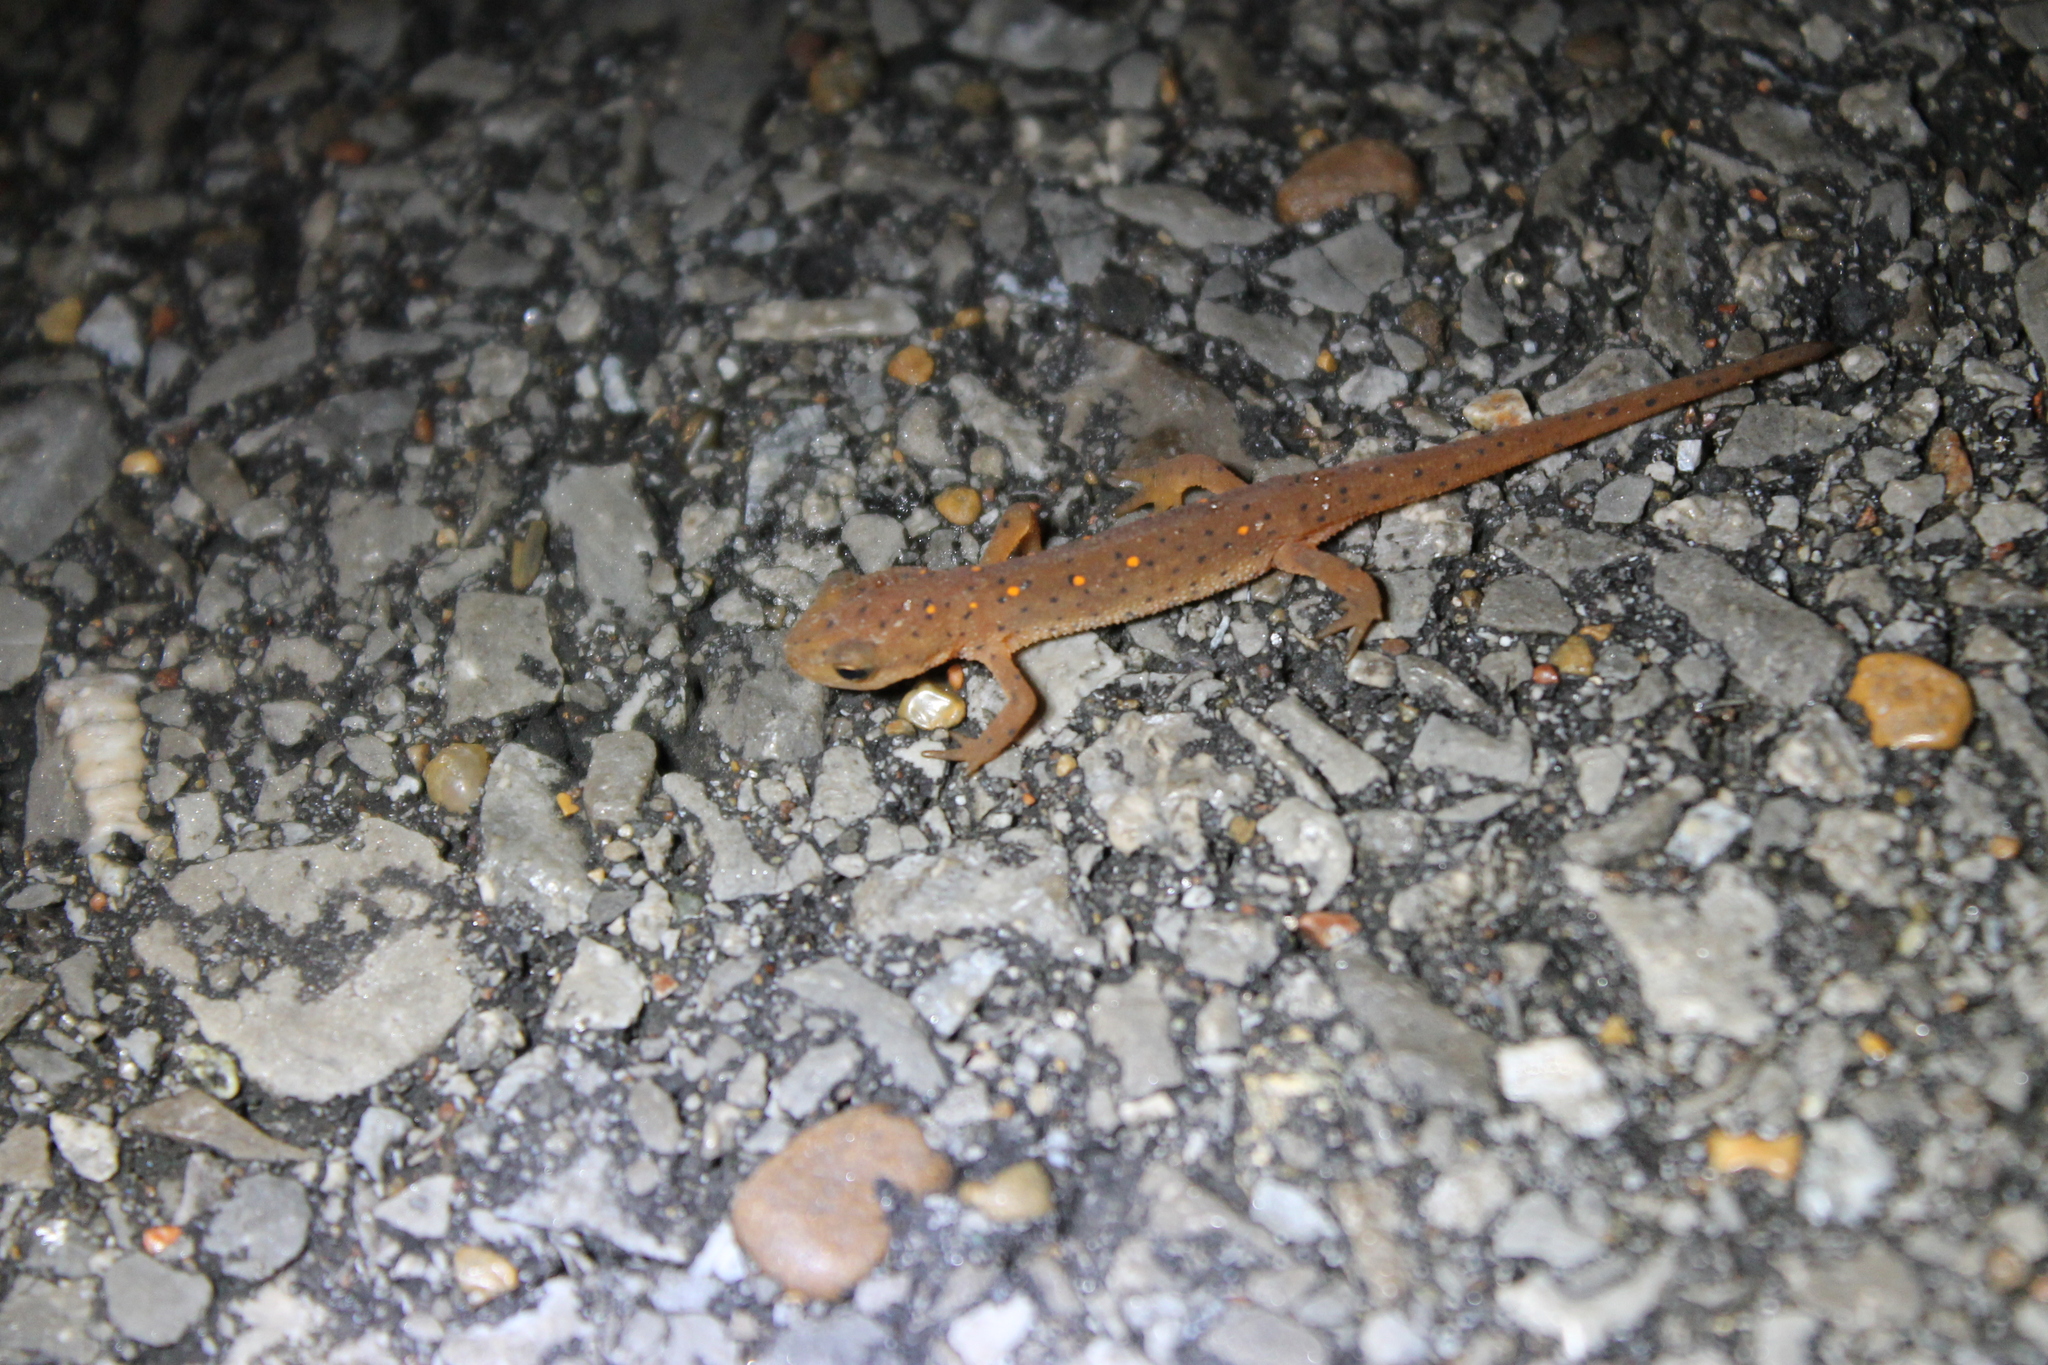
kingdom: Animalia
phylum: Chordata
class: Amphibia
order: Caudata
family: Salamandridae
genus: Notophthalmus
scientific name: Notophthalmus viridescens
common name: Eastern newt
